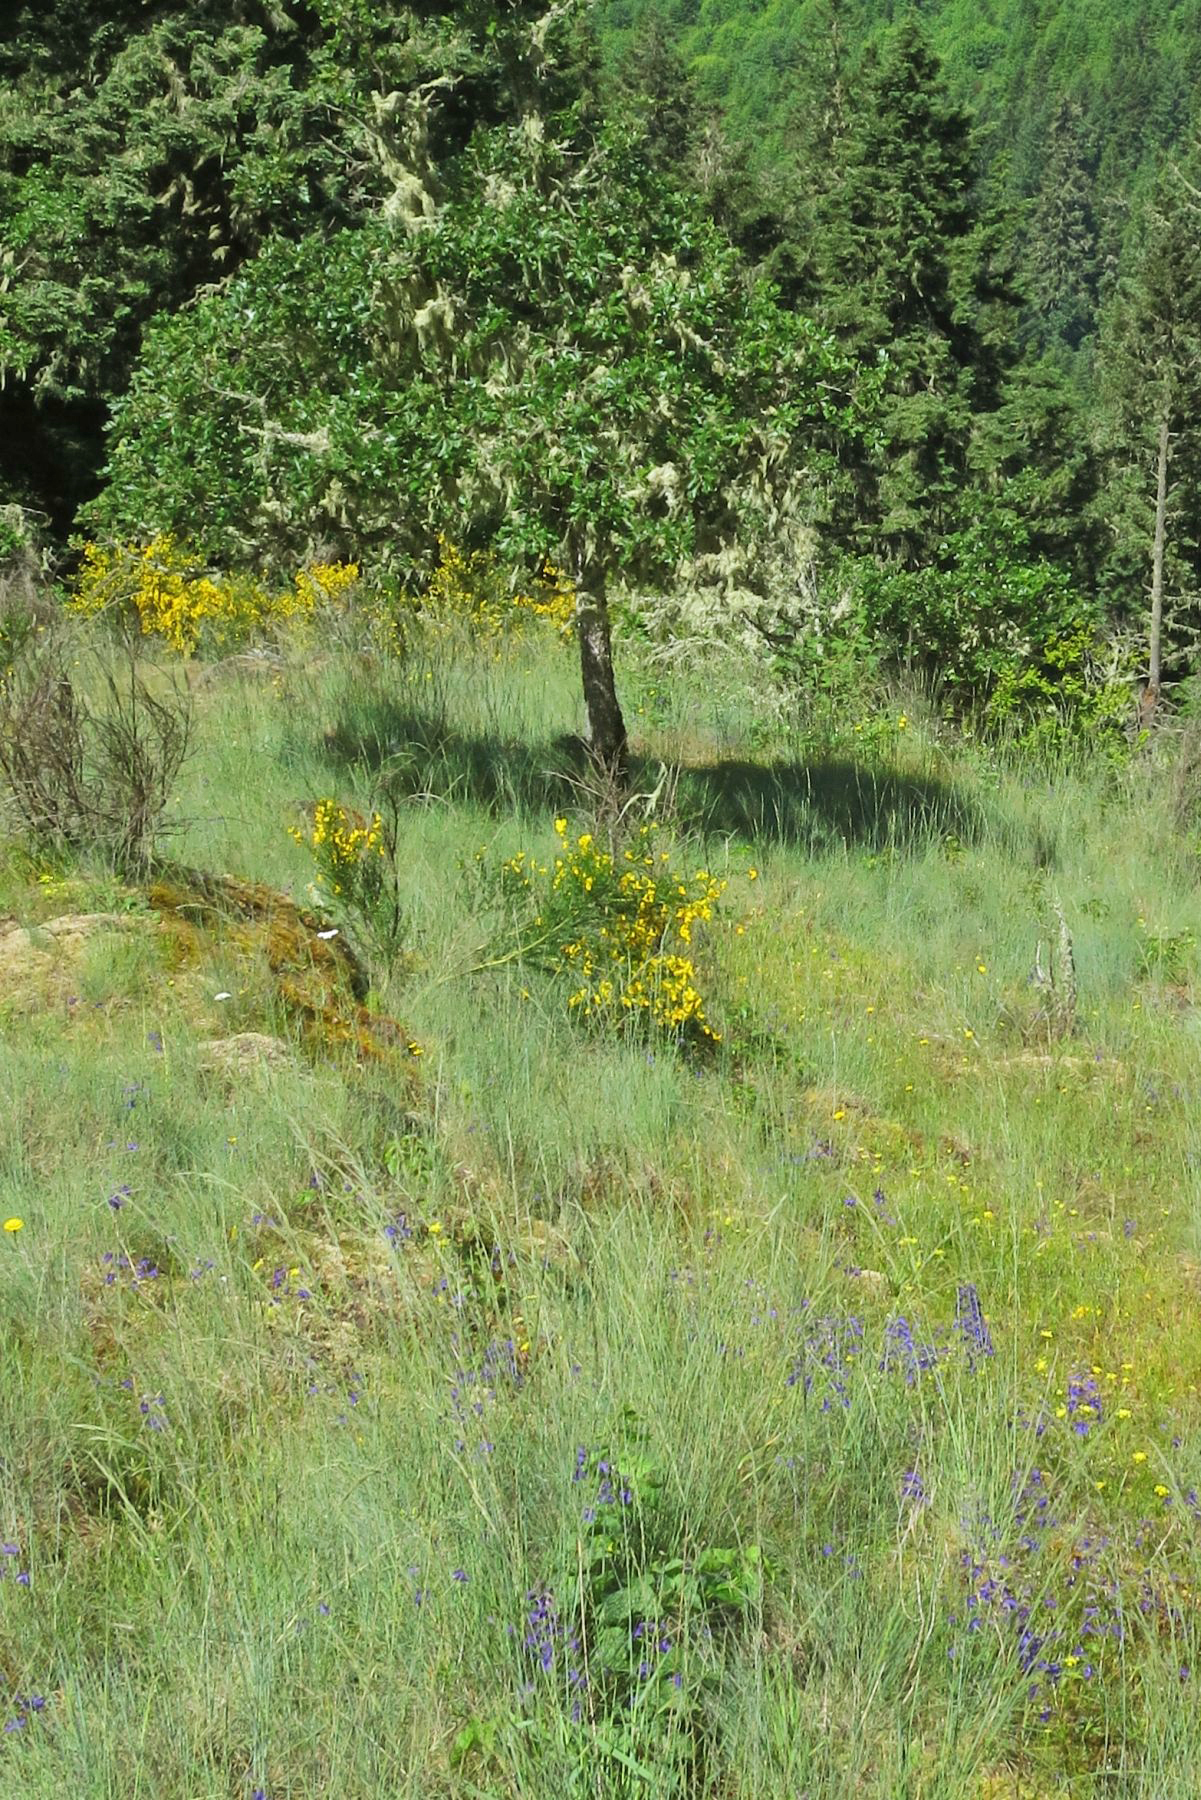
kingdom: Plantae
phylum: Tracheophyta
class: Magnoliopsida
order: Fagales
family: Fagaceae
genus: Quercus
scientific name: Quercus garryana
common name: Garry oak
